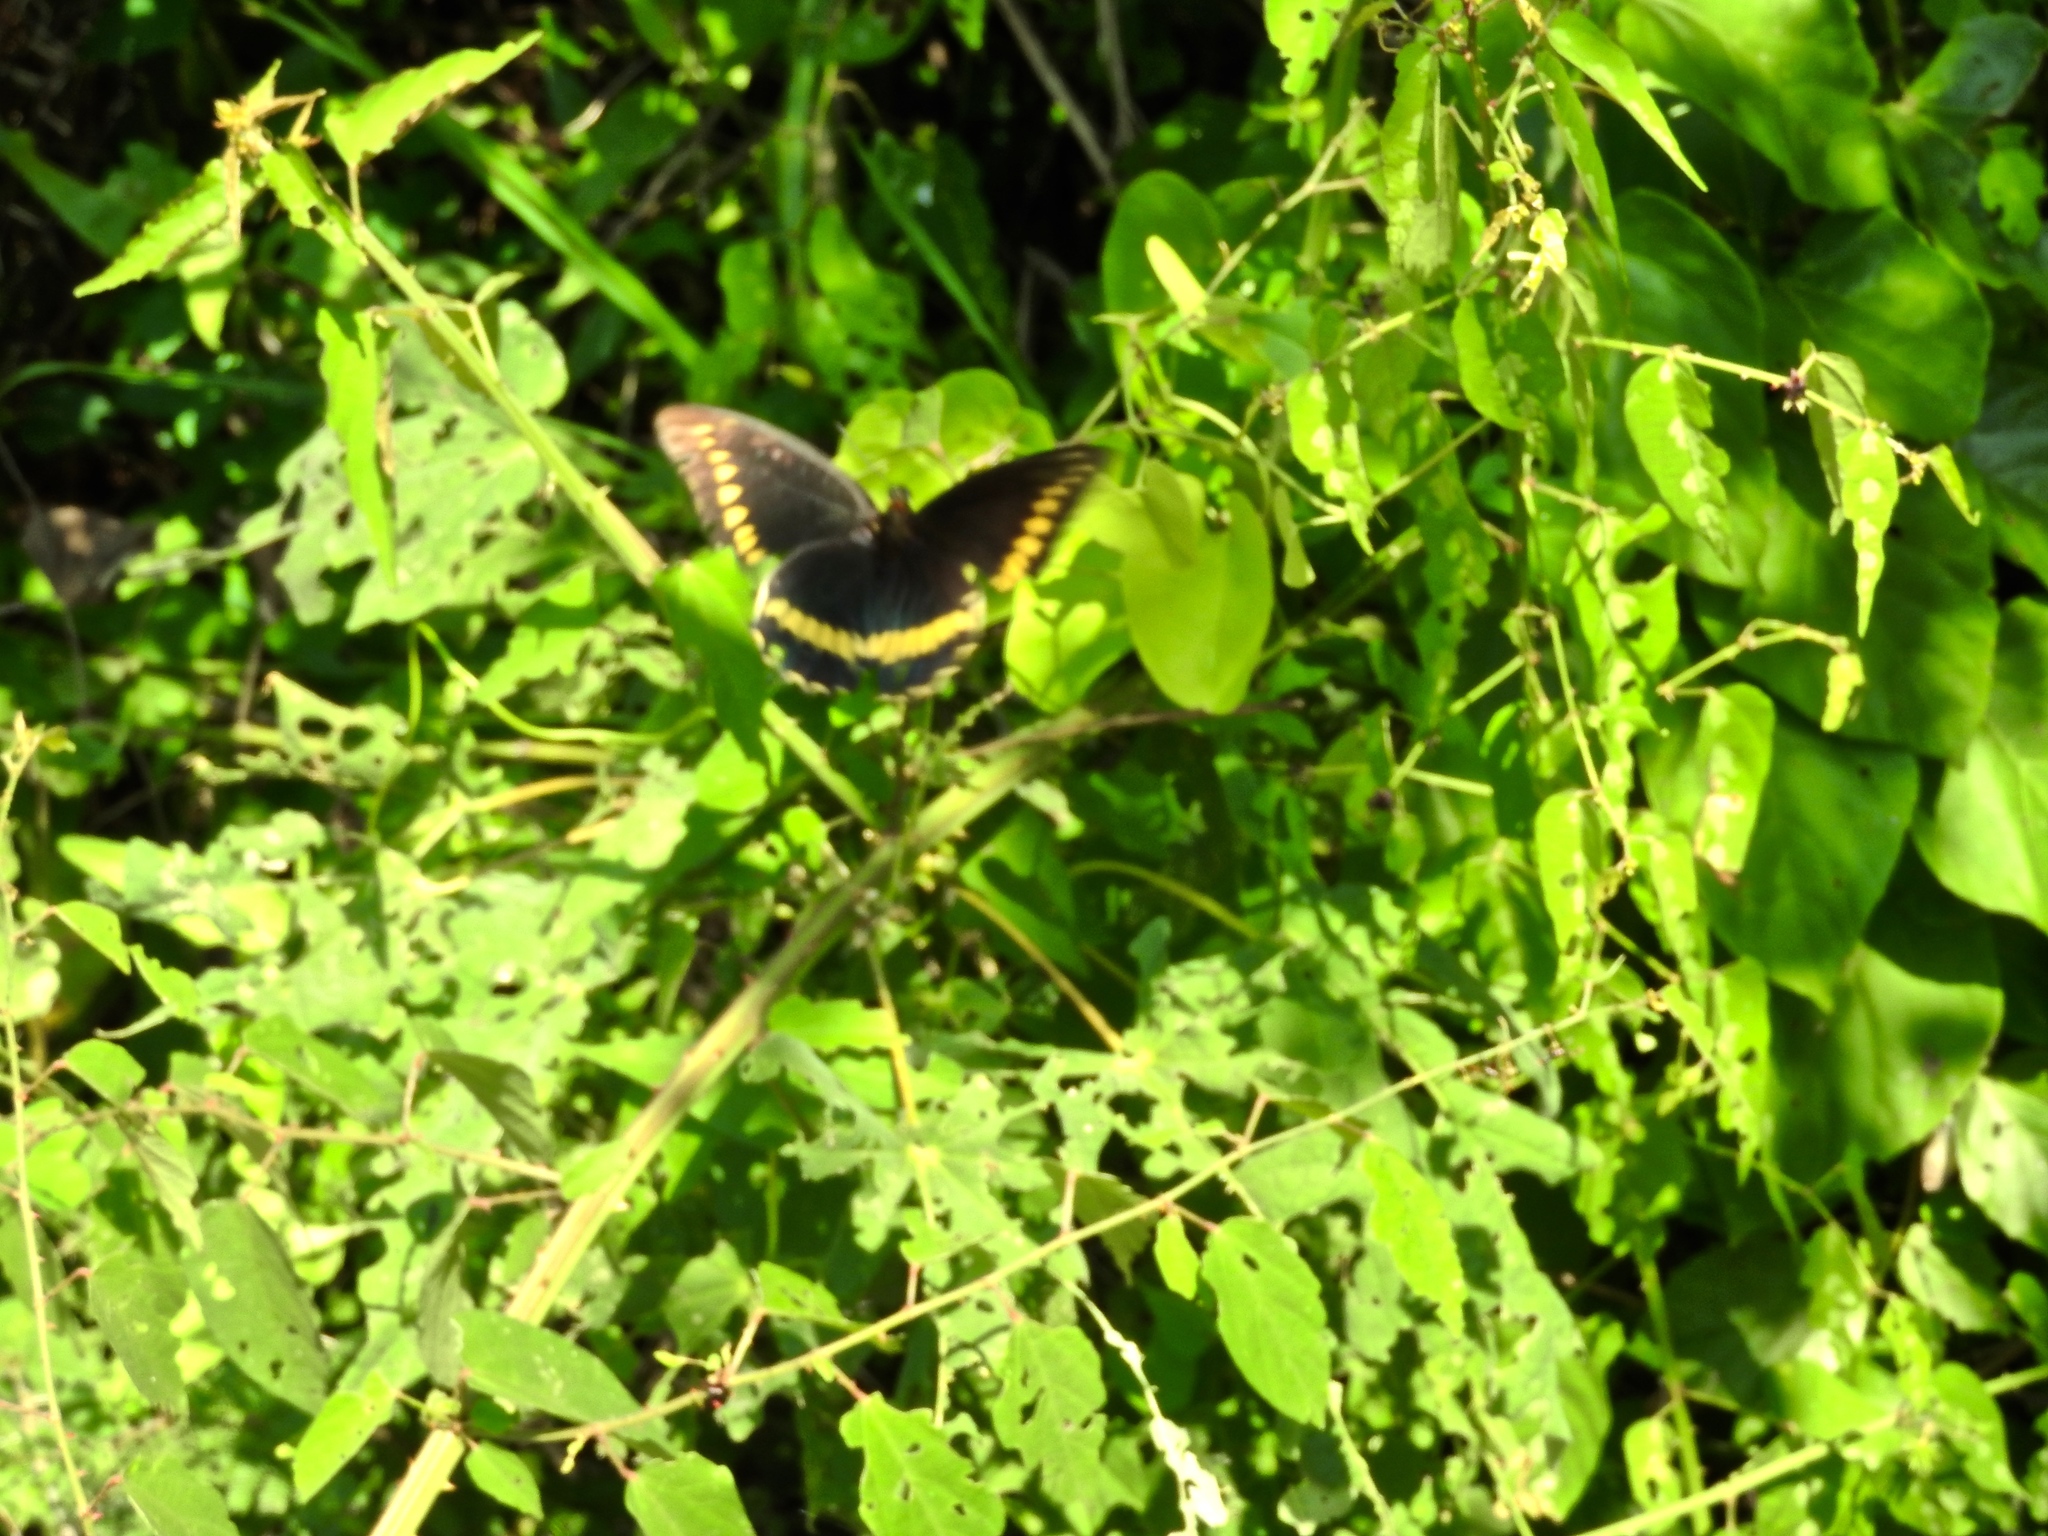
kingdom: Animalia
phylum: Arthropoda
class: Insecta
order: Lepidoptera
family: Papilionidae
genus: Battus
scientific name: Battus polydamas
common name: Polydamas swallowtail
